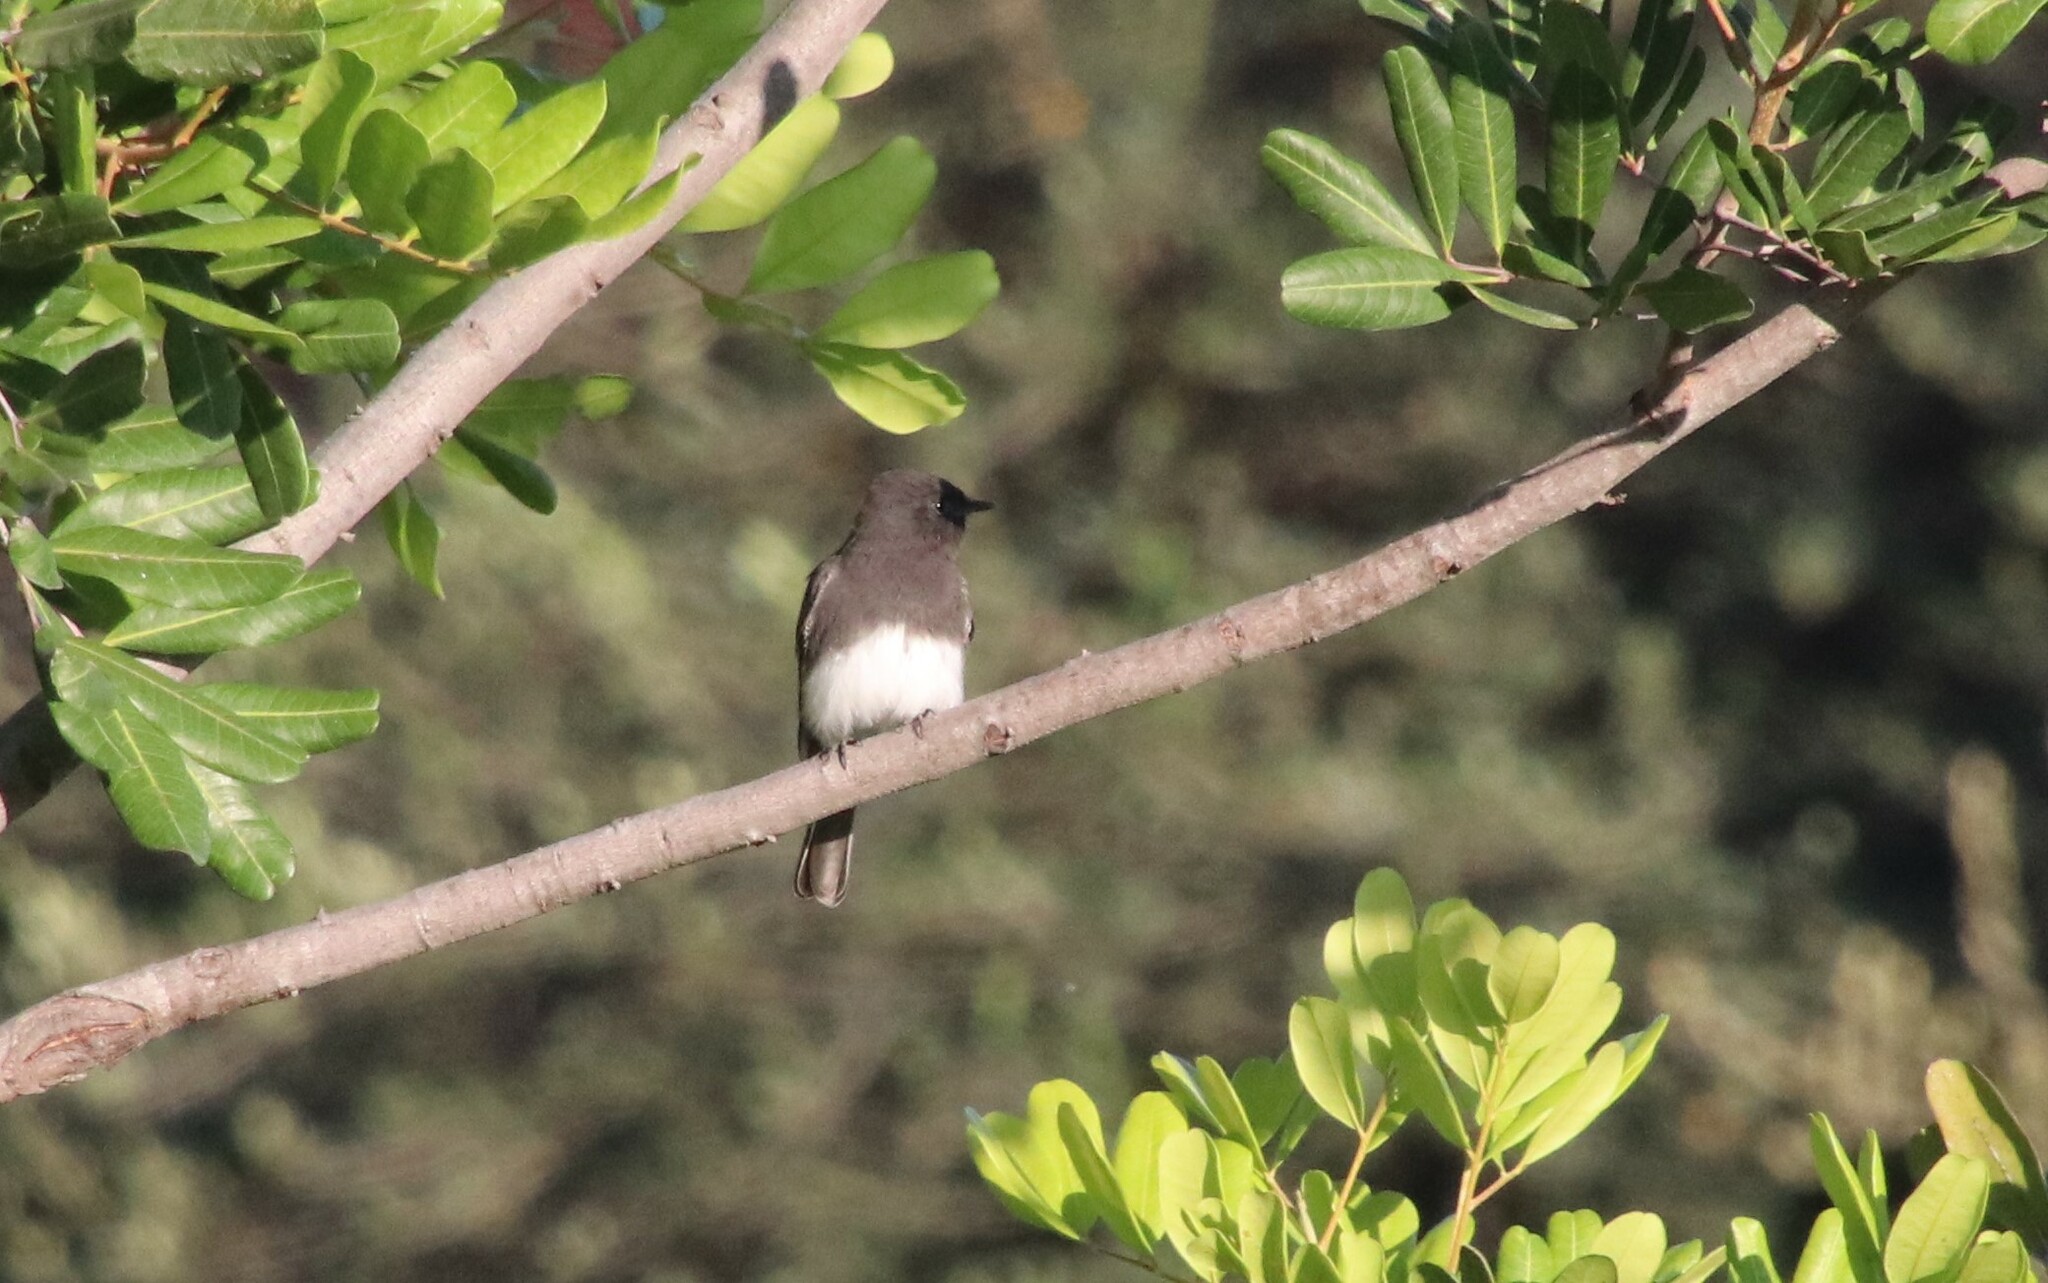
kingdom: Animalia
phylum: Chordata
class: Aves
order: Passeriformes
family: Tyrannidae
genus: Sayornis
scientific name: Sayornis nigricans
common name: Black phoebe
